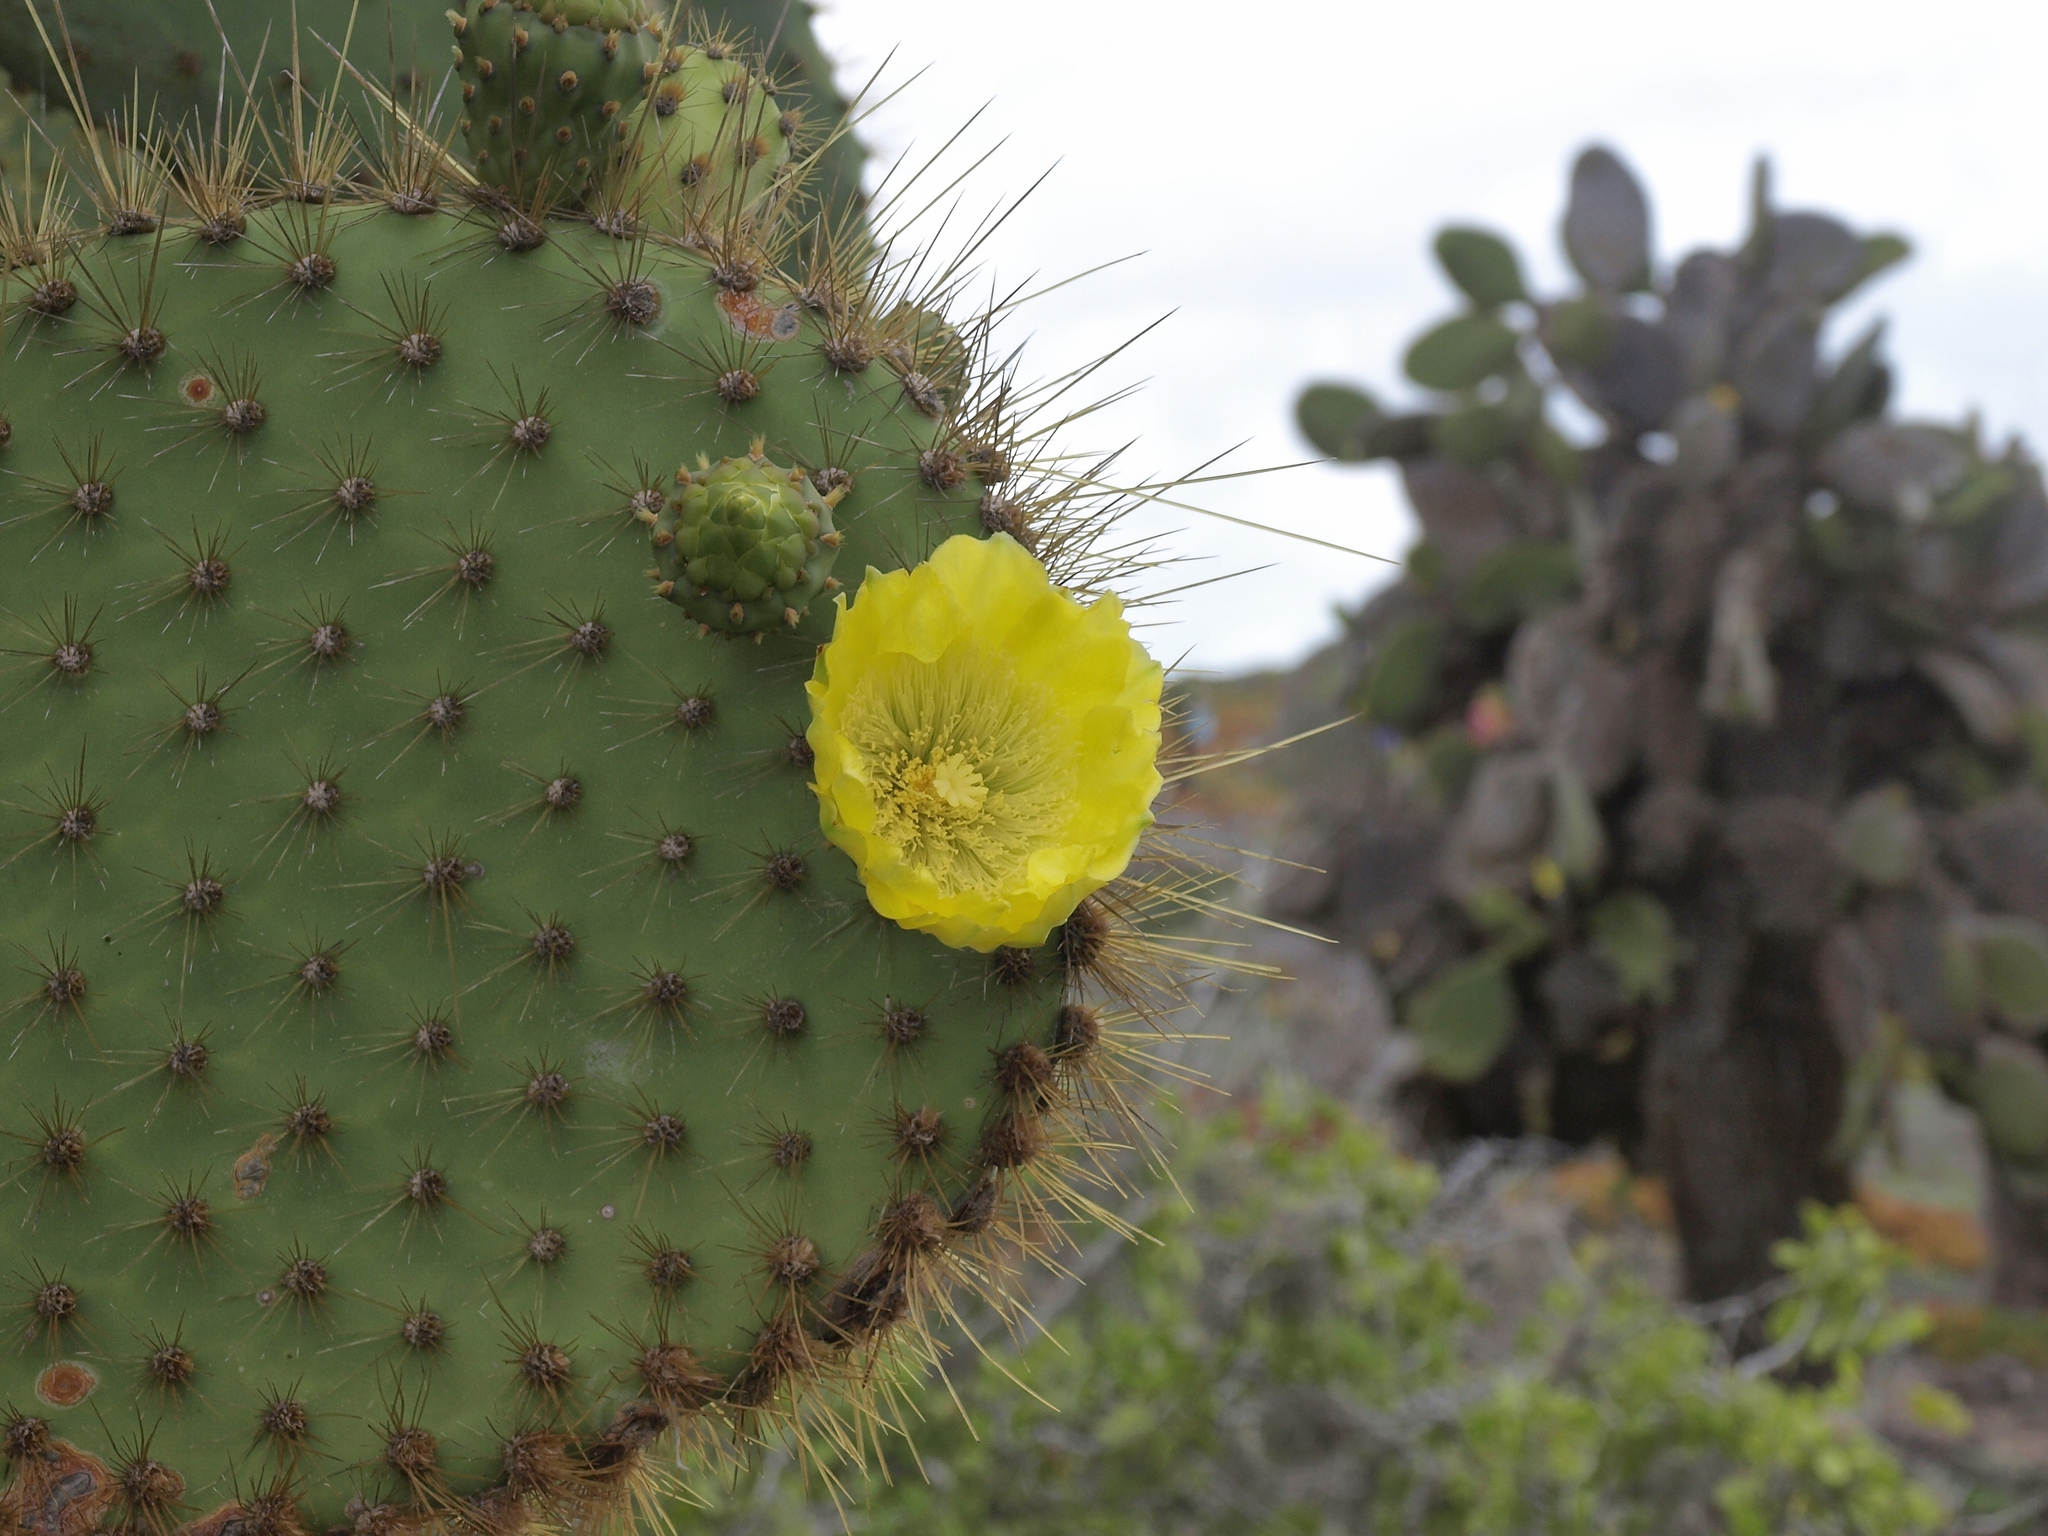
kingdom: Plantae
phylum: Tracheophyta
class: Magnoliopsida
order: Caryophyllales
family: Cactaceae
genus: Opuntia
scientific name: Opuntia galapageia
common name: Galápagos prickly pear
